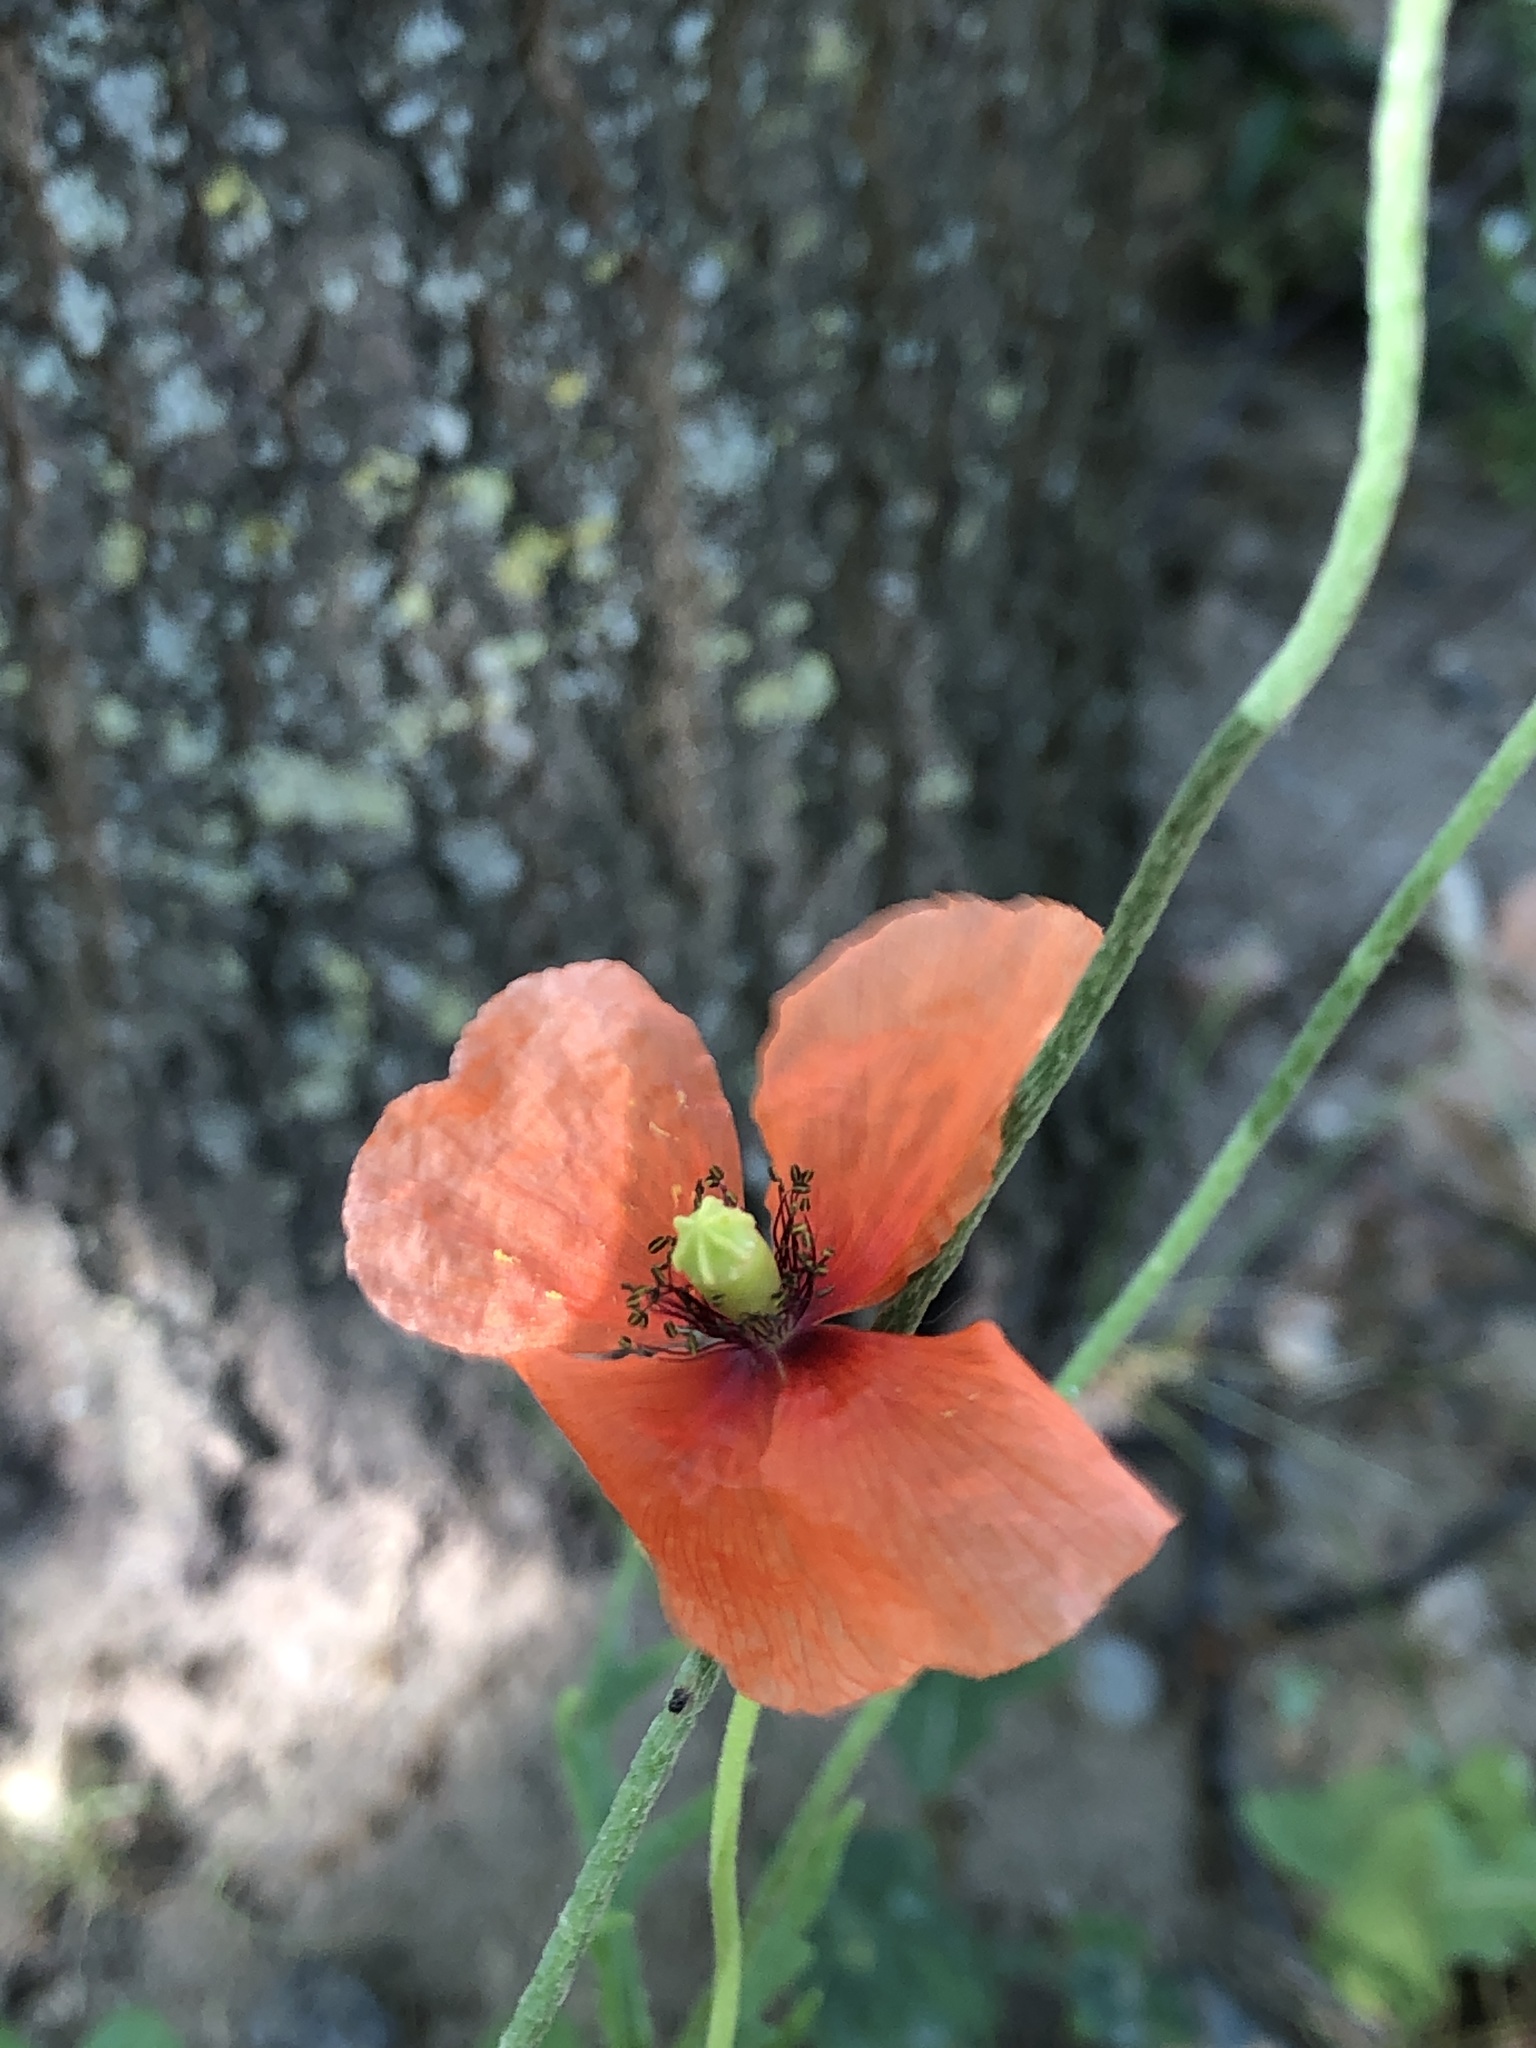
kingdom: Plantae
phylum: Tracheophyta
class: Magnoliopsida
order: Ranunculales
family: Papaveraceae
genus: Papaver
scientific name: Papaver dubium
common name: Long-headed poppy
